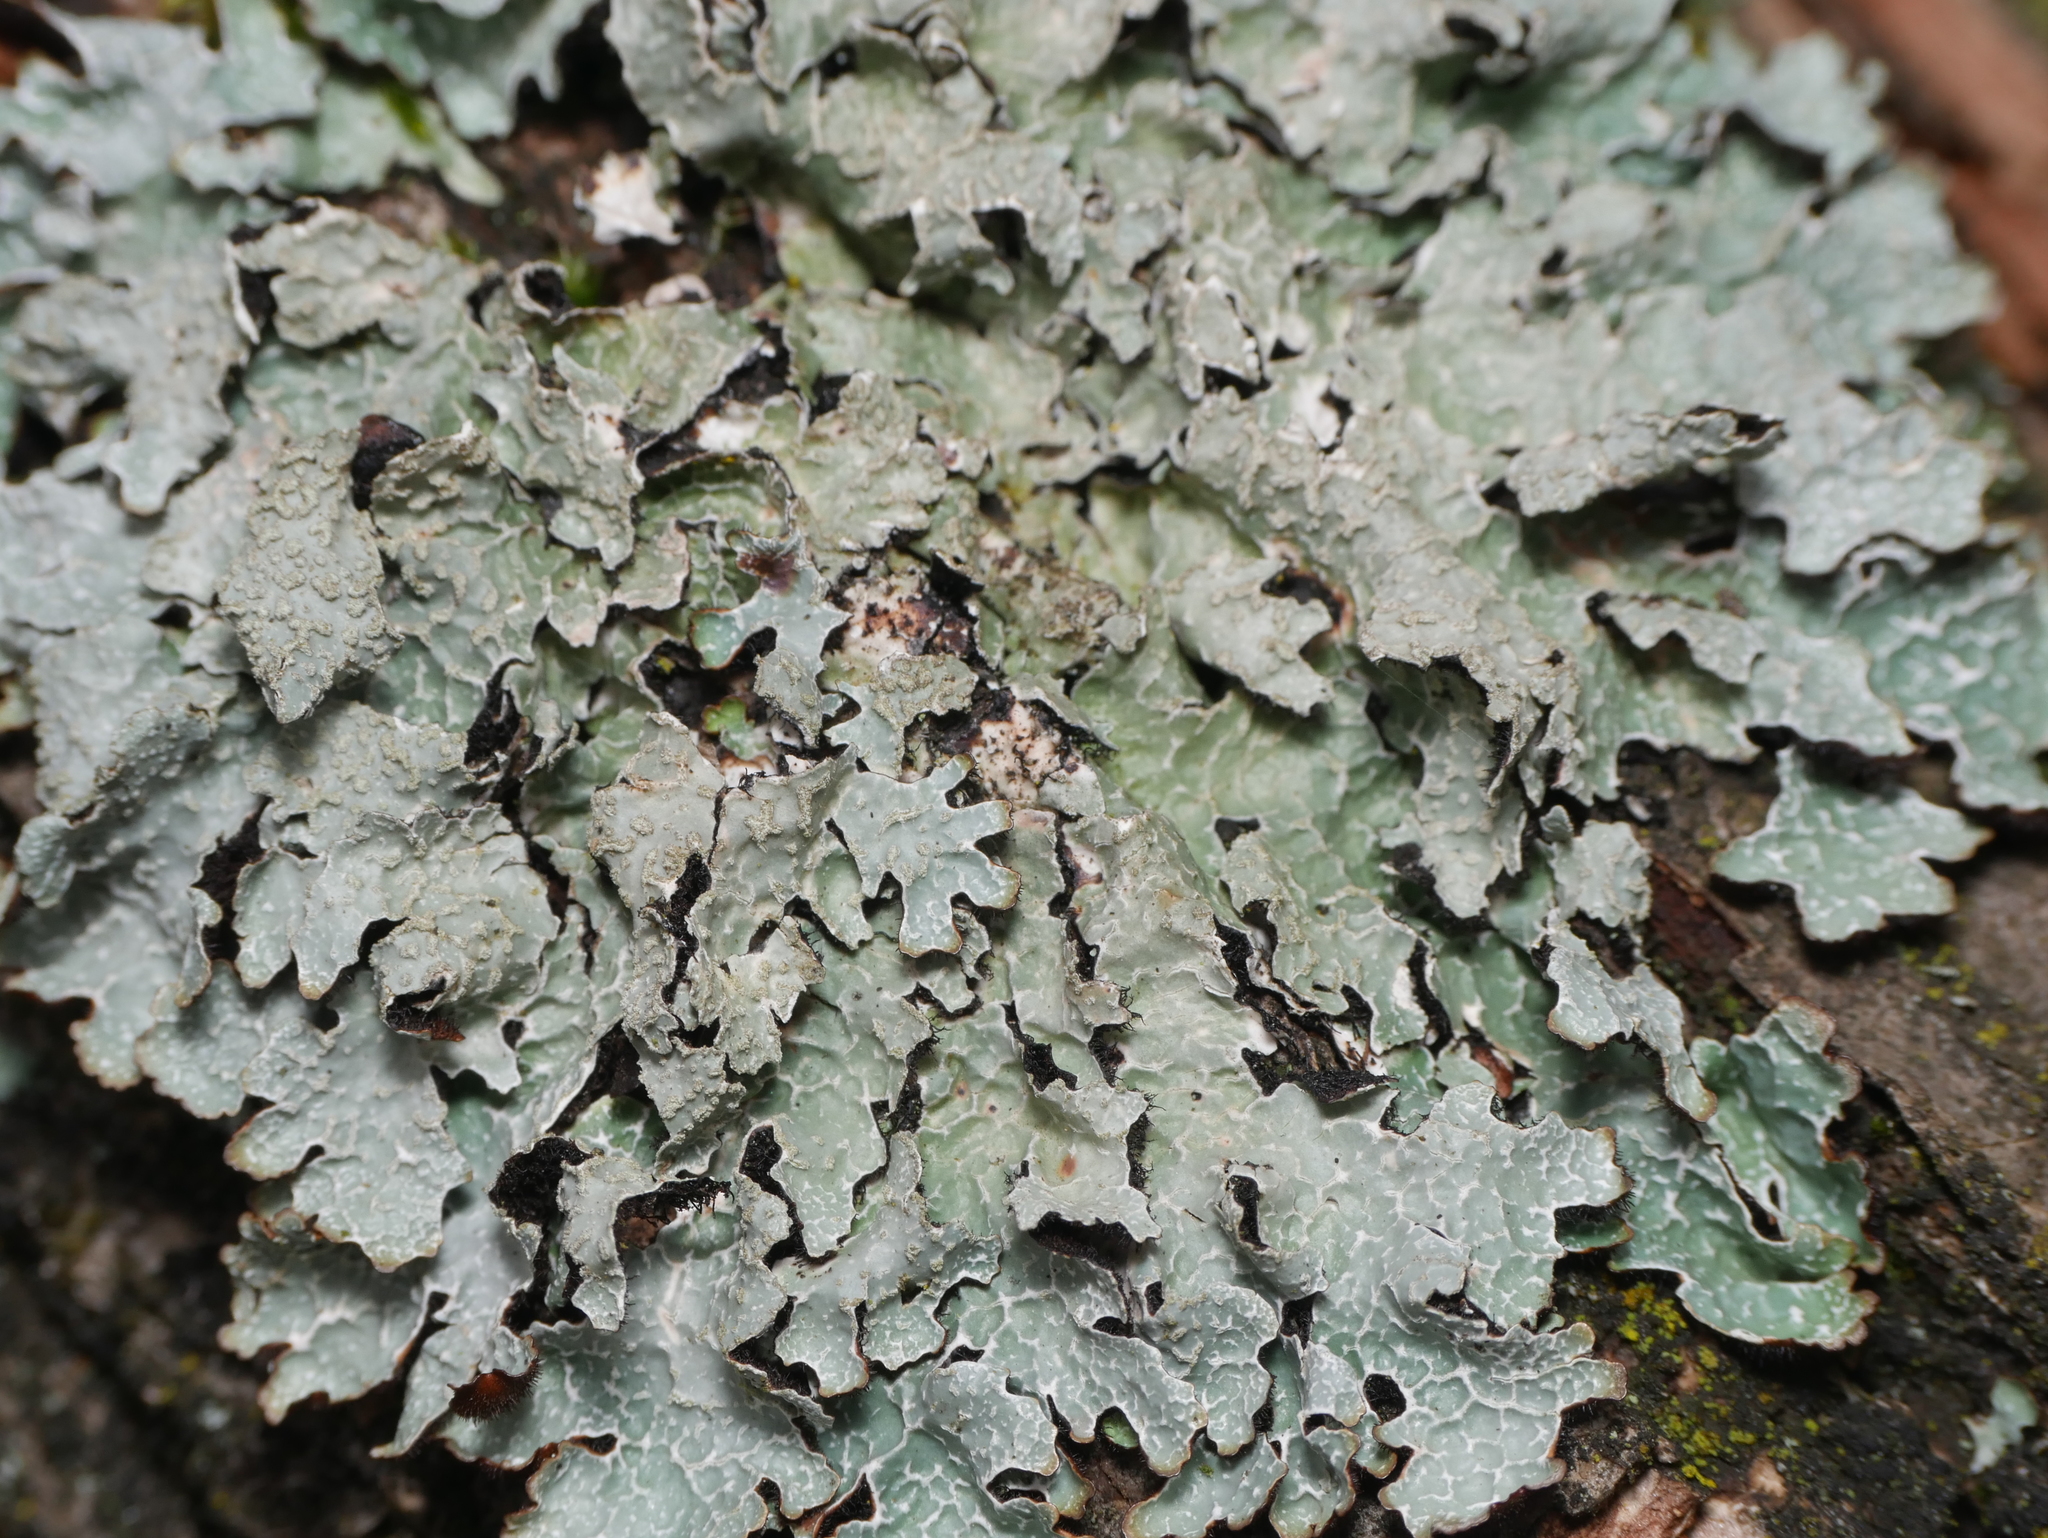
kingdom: Fungi
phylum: Ascomycota
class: Lecanoromycetes
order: Lecanorales
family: Parmeliaceae
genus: Parmelia
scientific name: Parmelia sulcata
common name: Netted shield lichen
